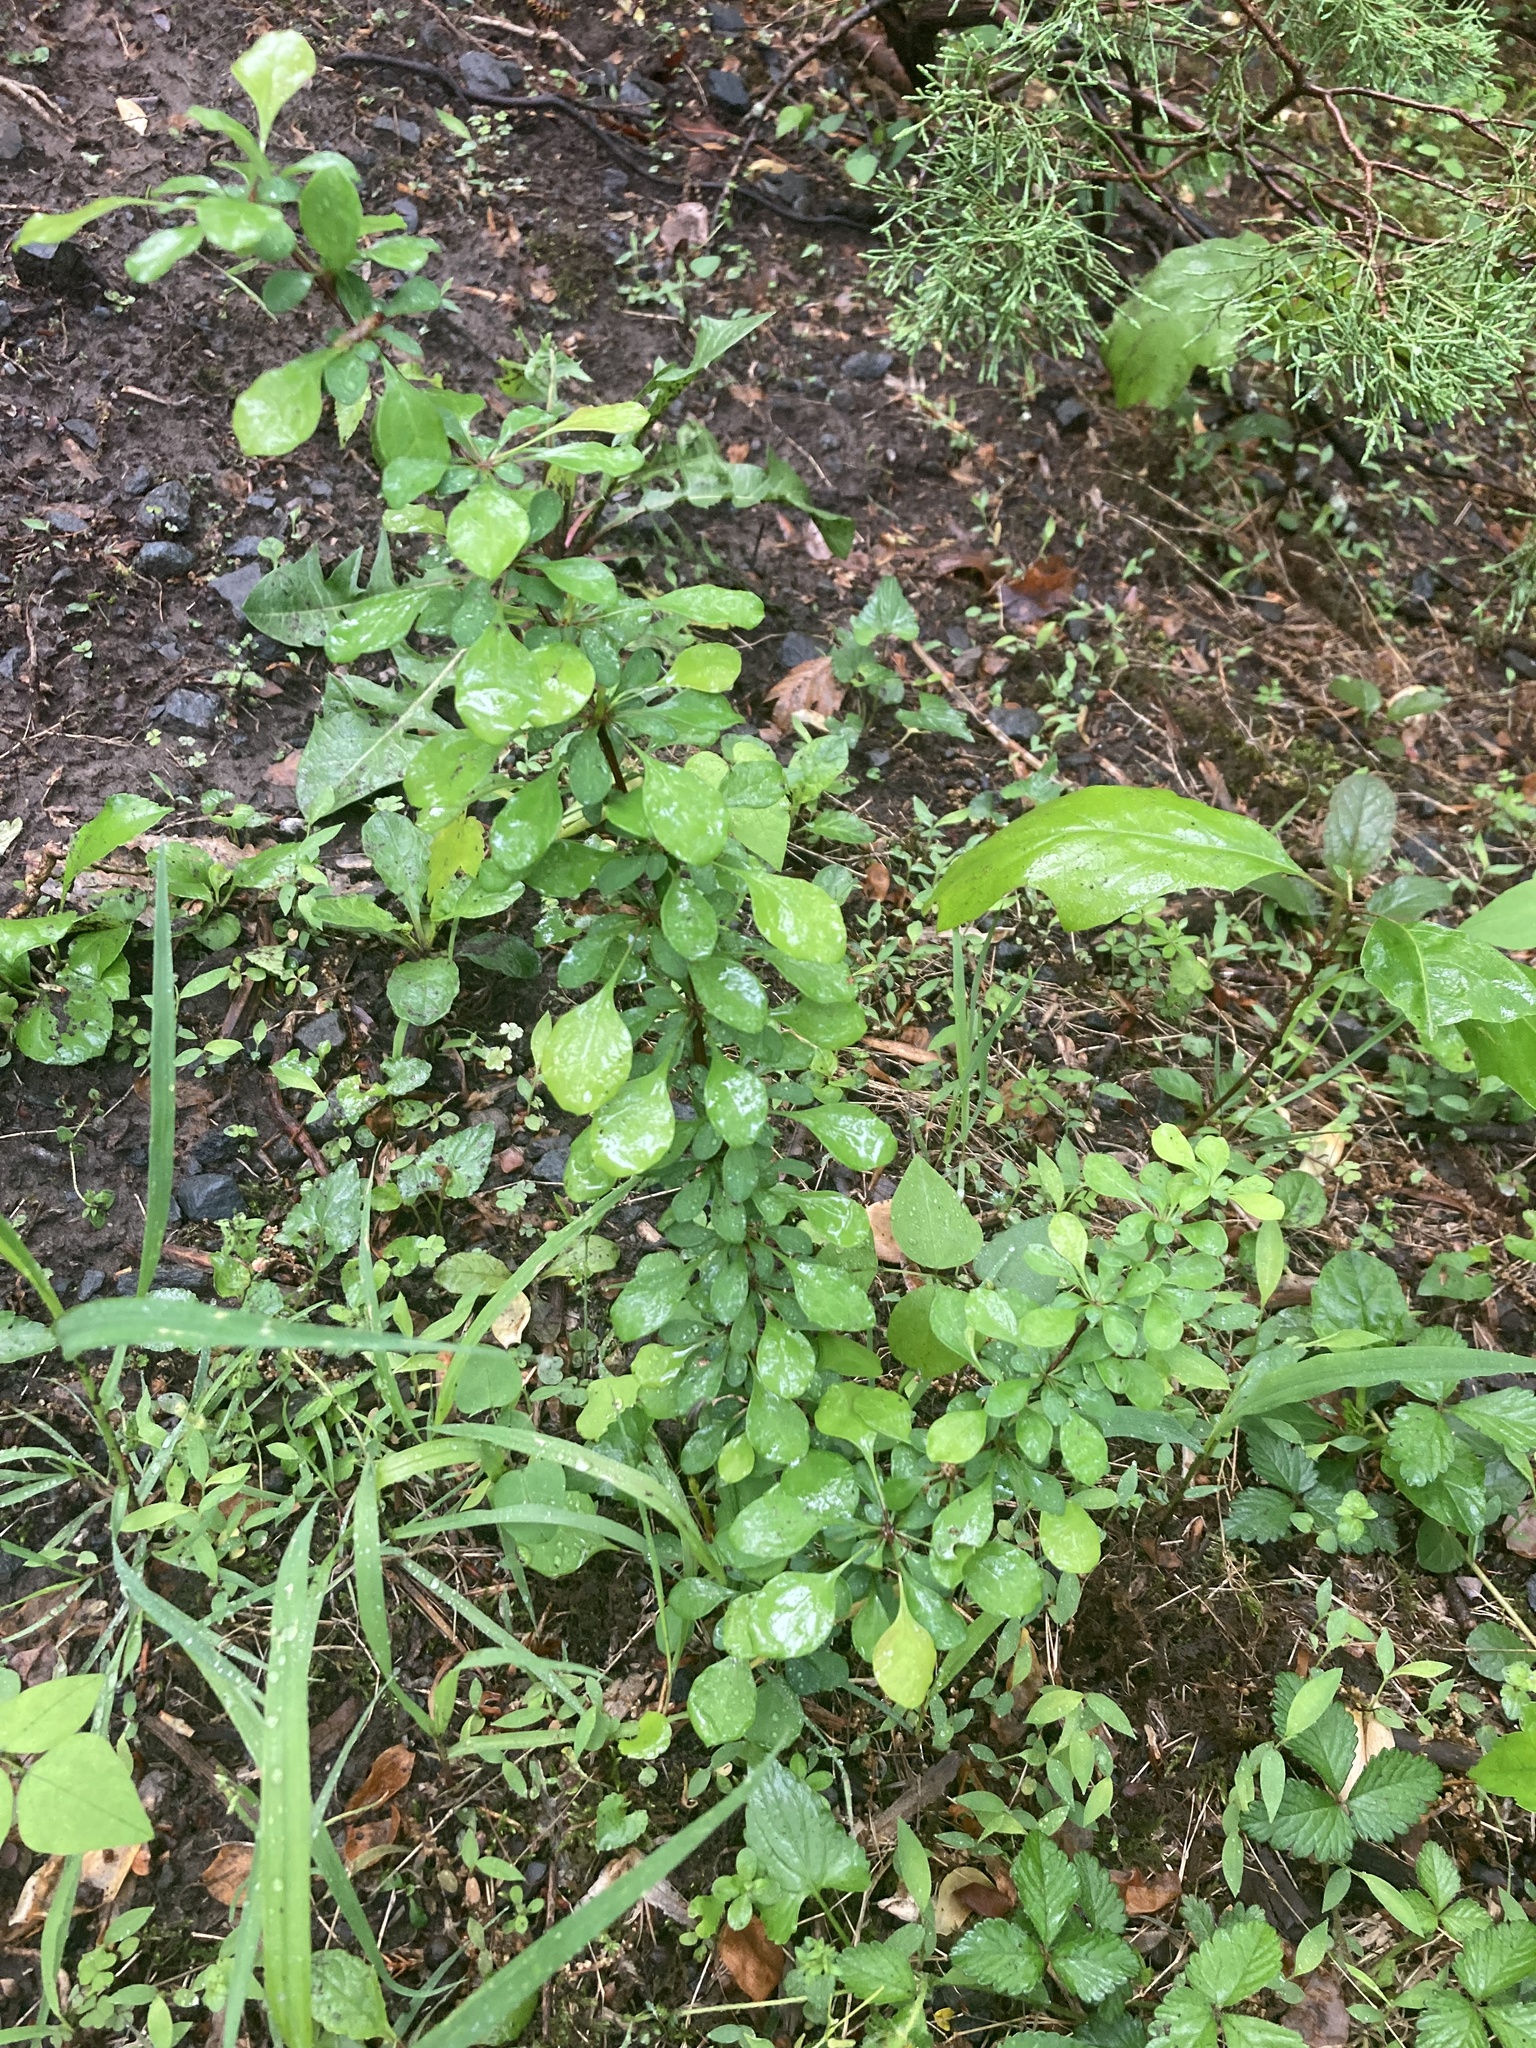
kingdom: Plantae
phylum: Tracheophyta
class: Magnoliopsida
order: Ranunculales
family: Berberidaceae
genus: Berberis
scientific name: Berberis thunbergii
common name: Japanese barberry
